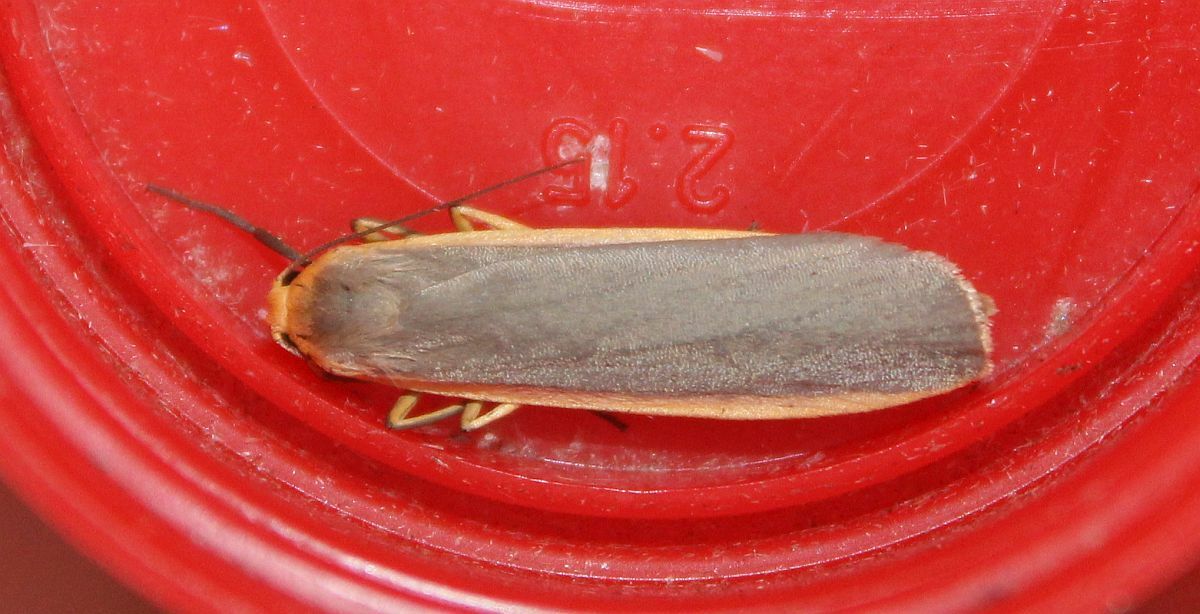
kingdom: Animalia
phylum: Arthropoda
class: Insecta
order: Lepidoptera
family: Erebidae
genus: Nyea
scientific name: Nyea lurideola
